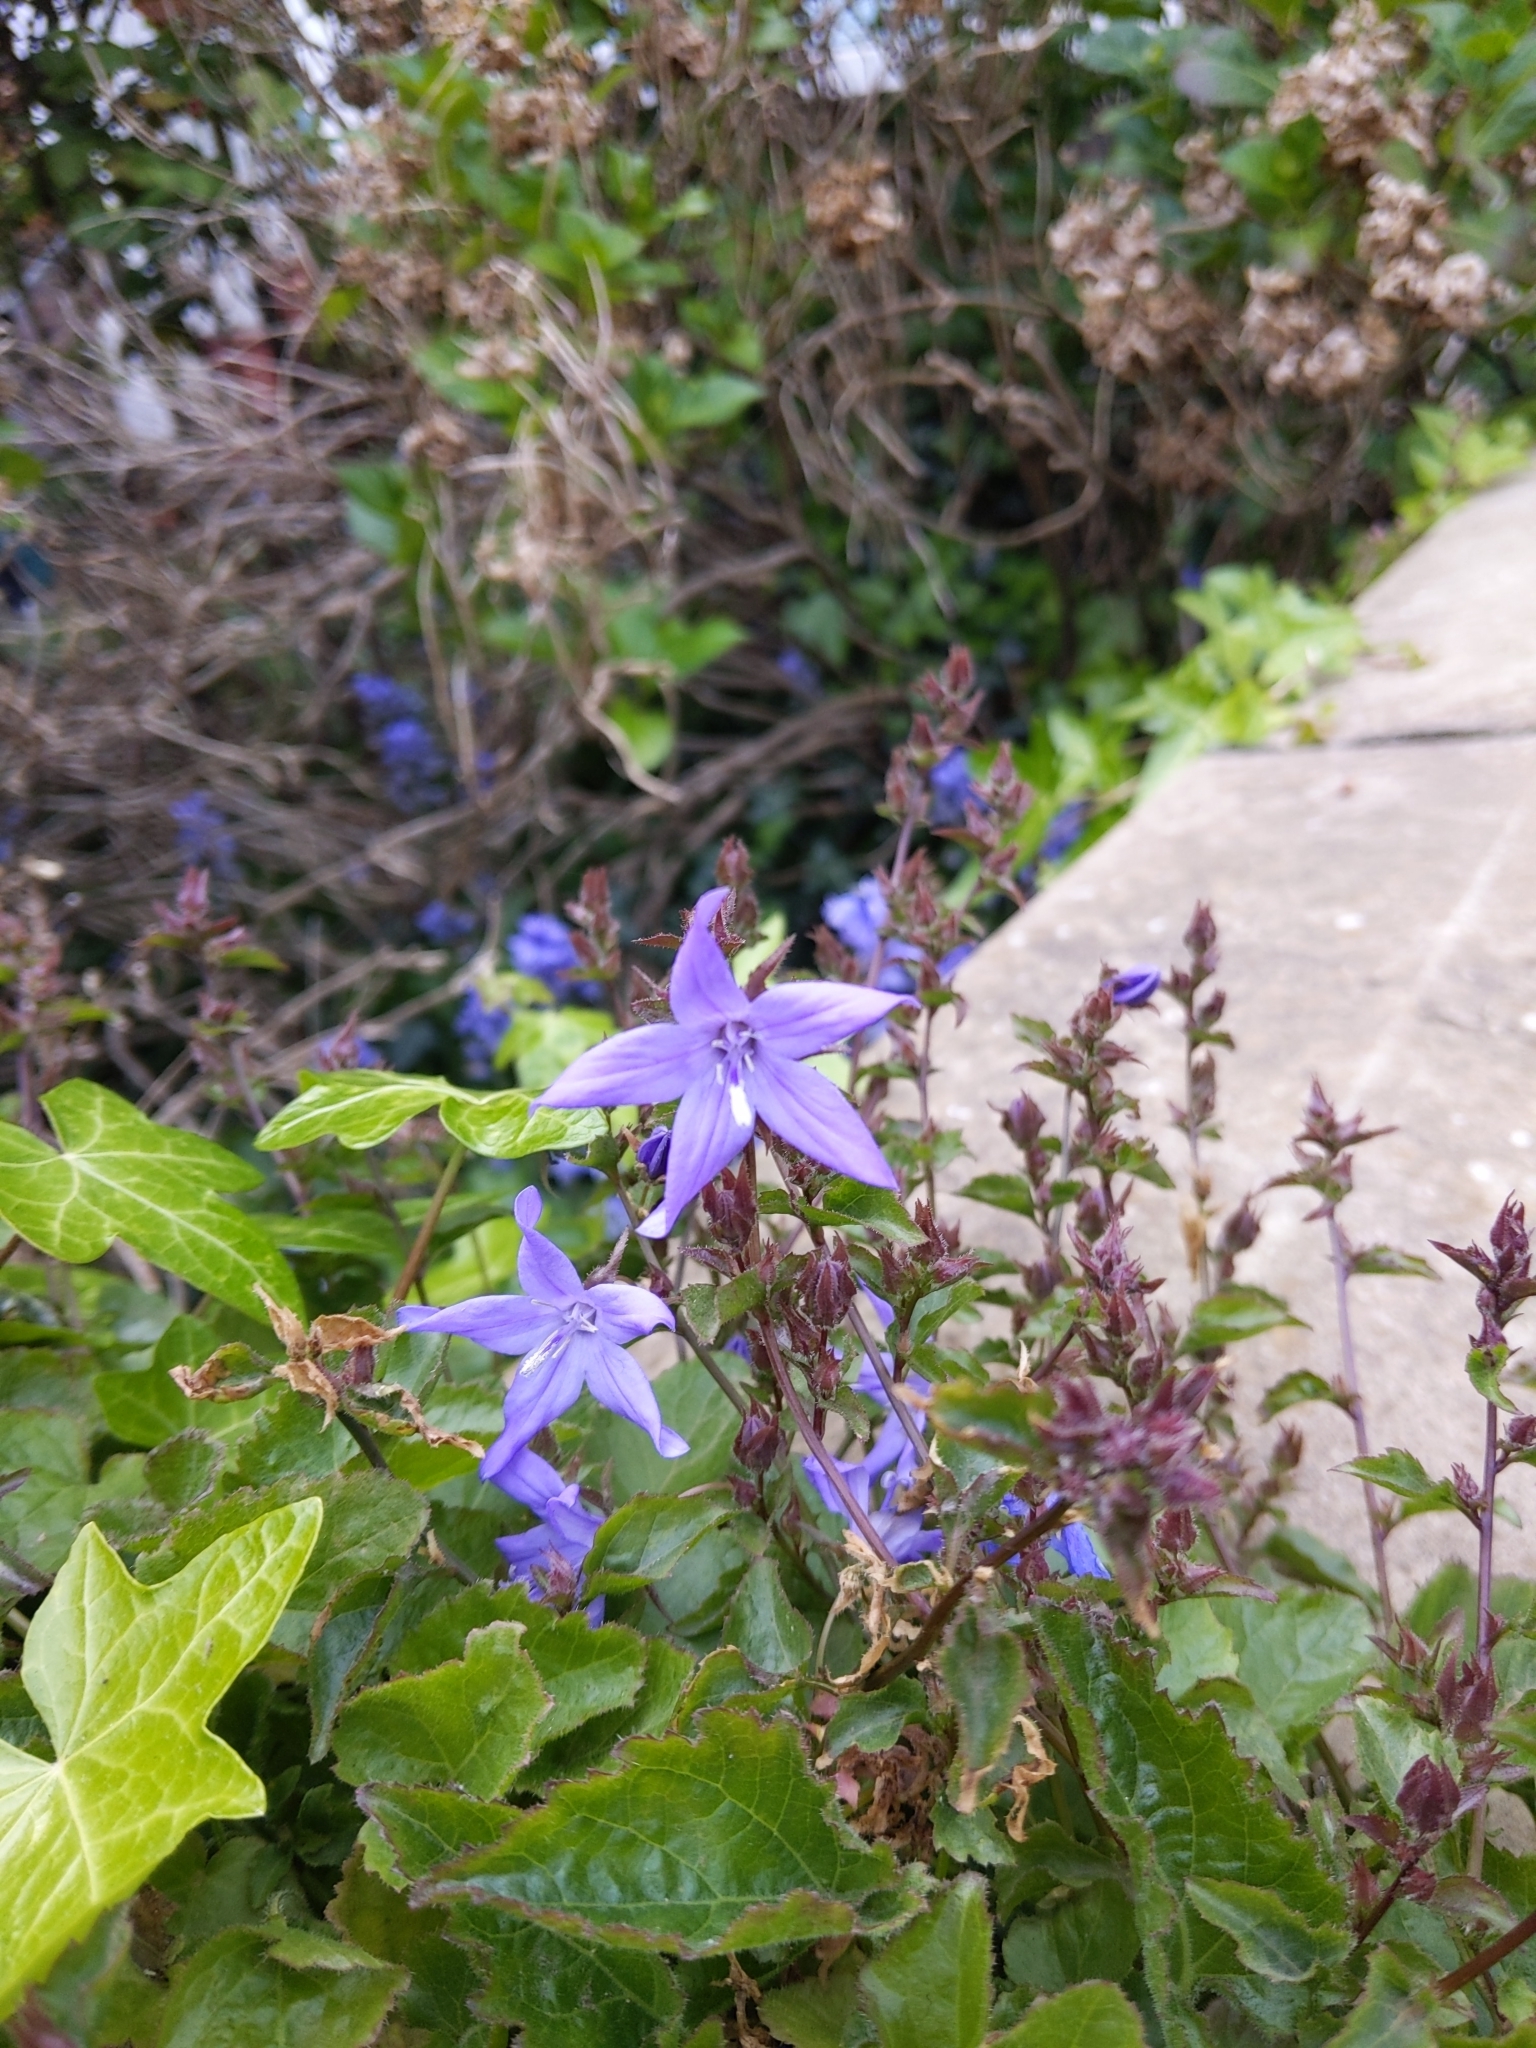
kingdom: Plantae
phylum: Tracheophyta
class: Magnoliopsida
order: Asterales
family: Campanulaceae
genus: Campanula
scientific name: Campanula poscharskyana
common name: Trailing bellflower
